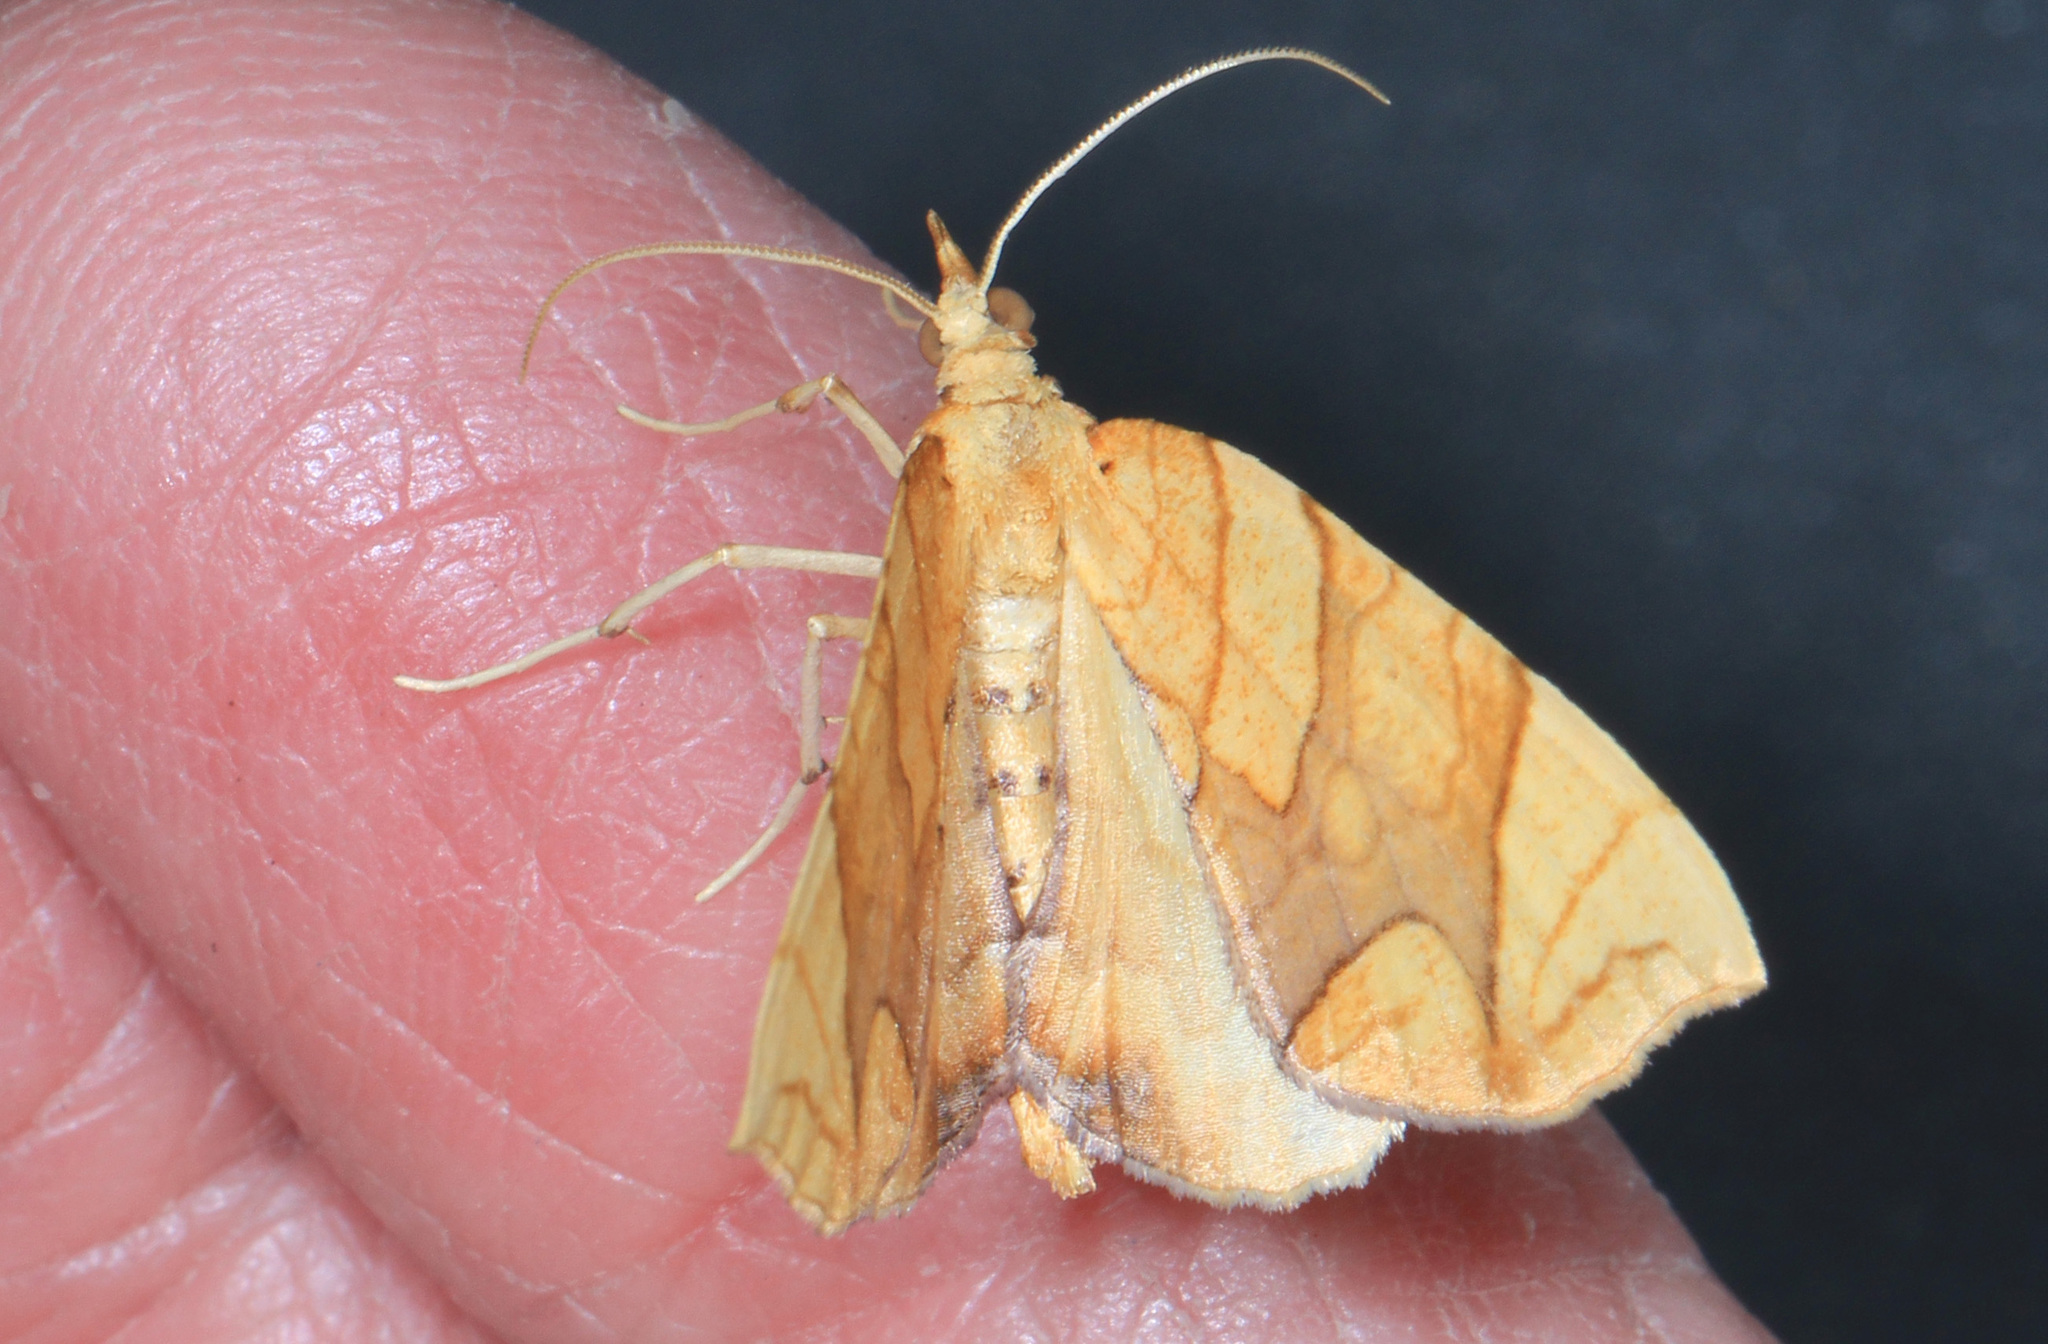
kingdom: Animalia
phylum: Arthropoda
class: Insecta
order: Lepidoptera
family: Geometridae
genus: Eulithis
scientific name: Eulithis
